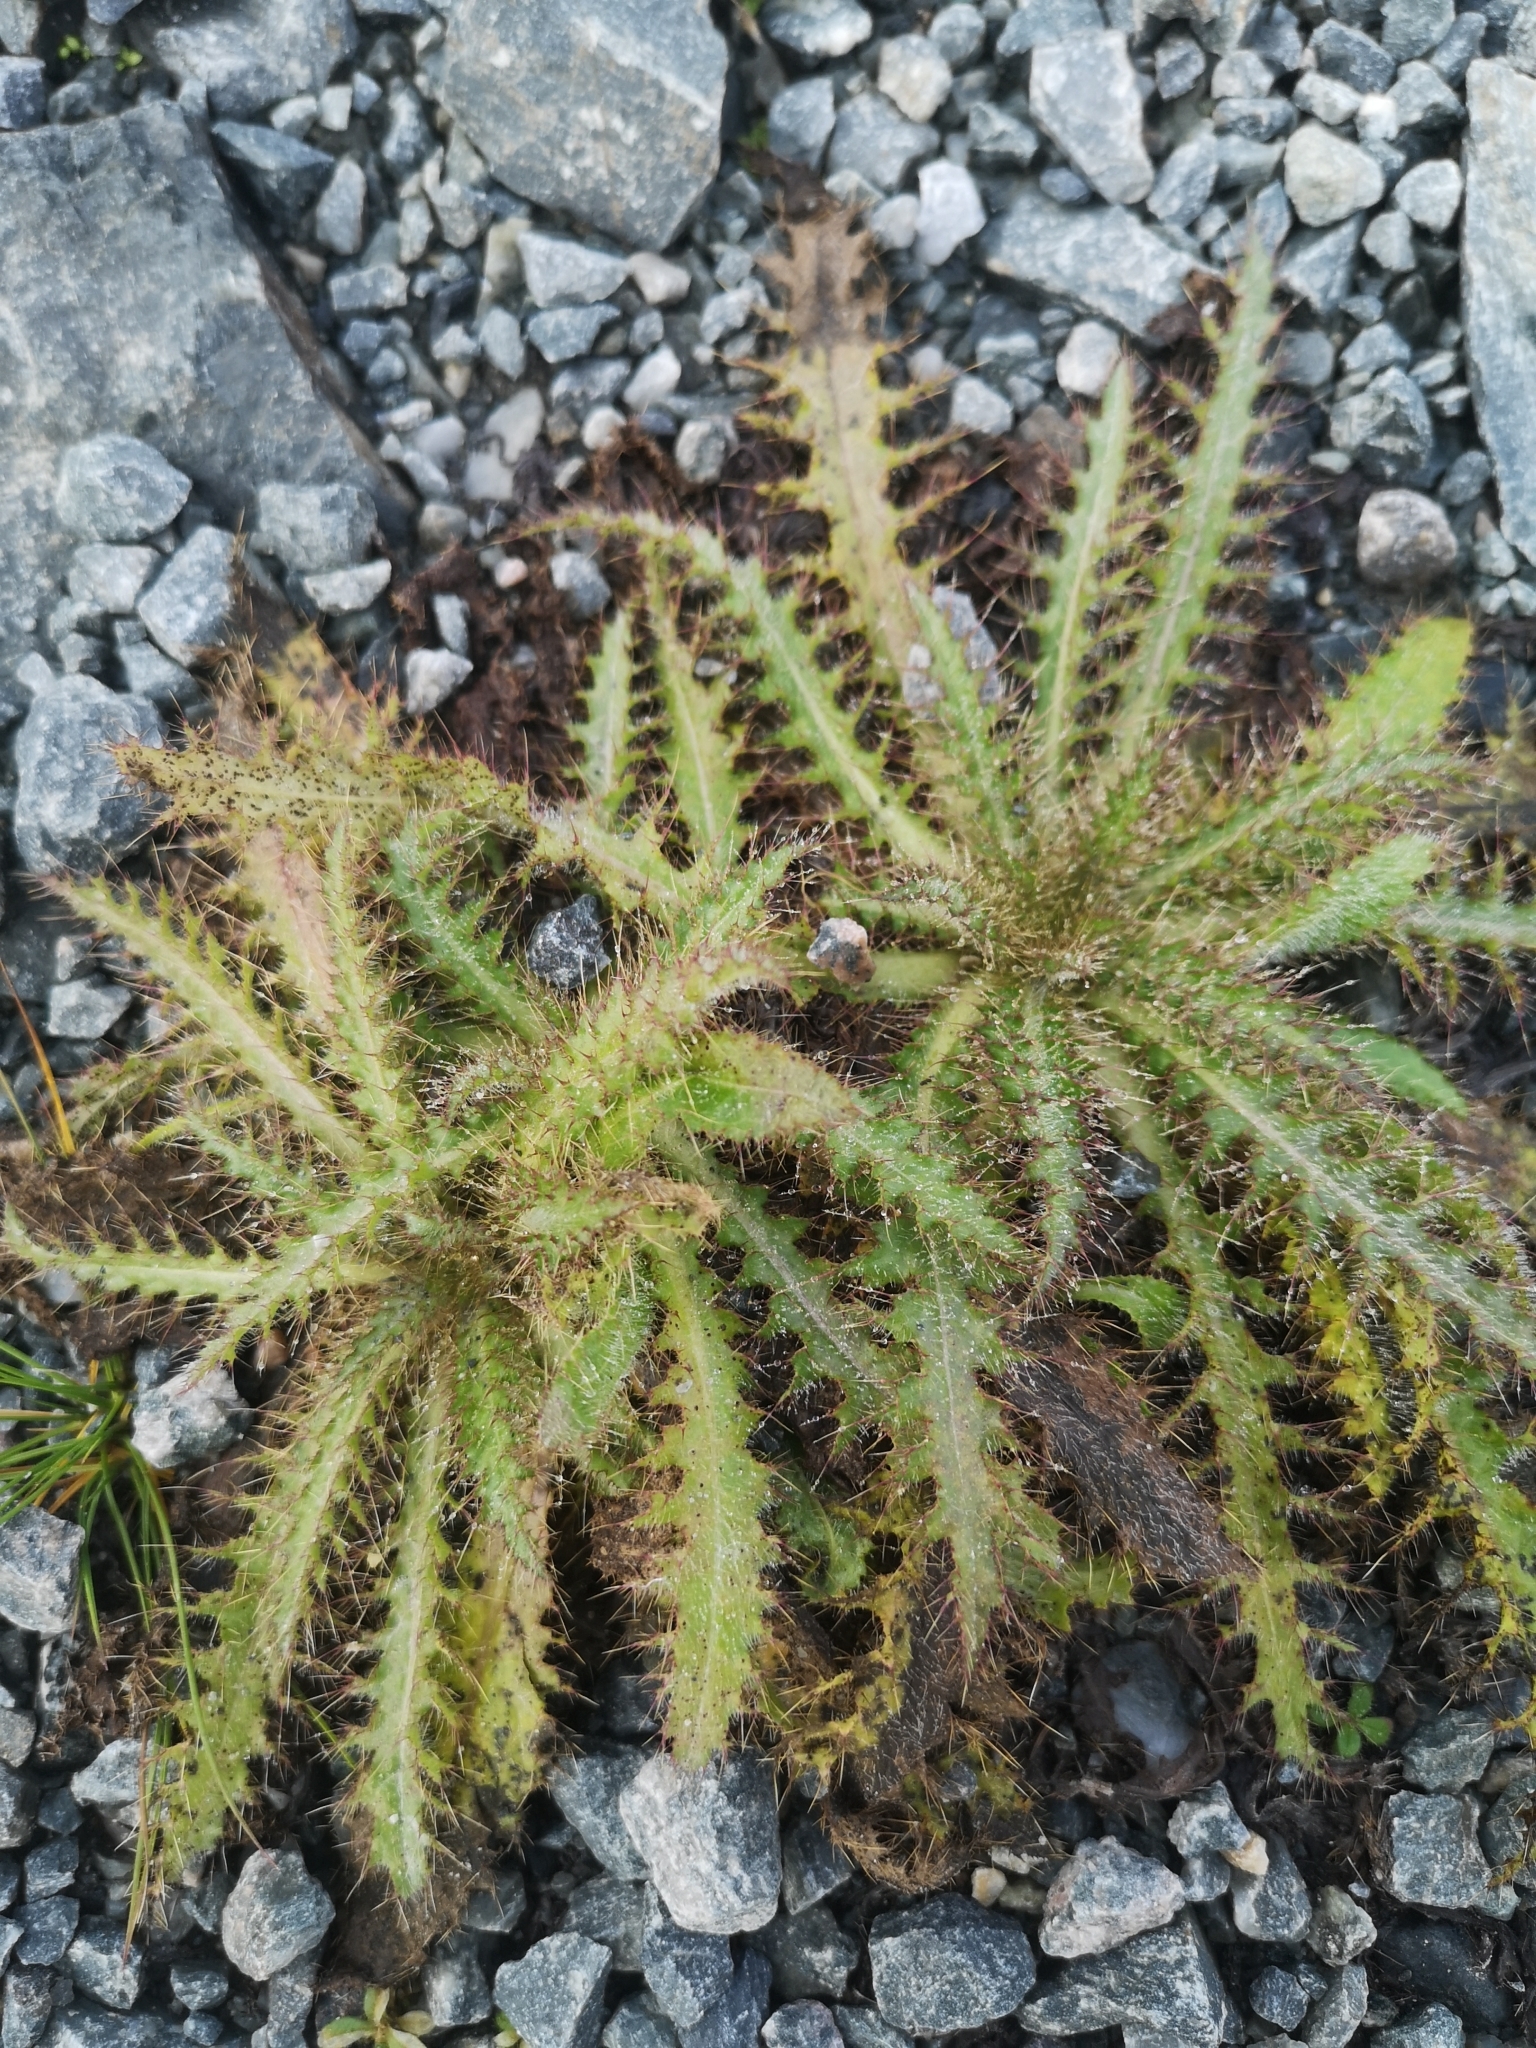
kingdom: Plantae
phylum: Tracheophyta
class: Magnoliopsida
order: Asterales
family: Asteraceae
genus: Cirsium
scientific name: Cirsium palustre
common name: Marsh thistle
